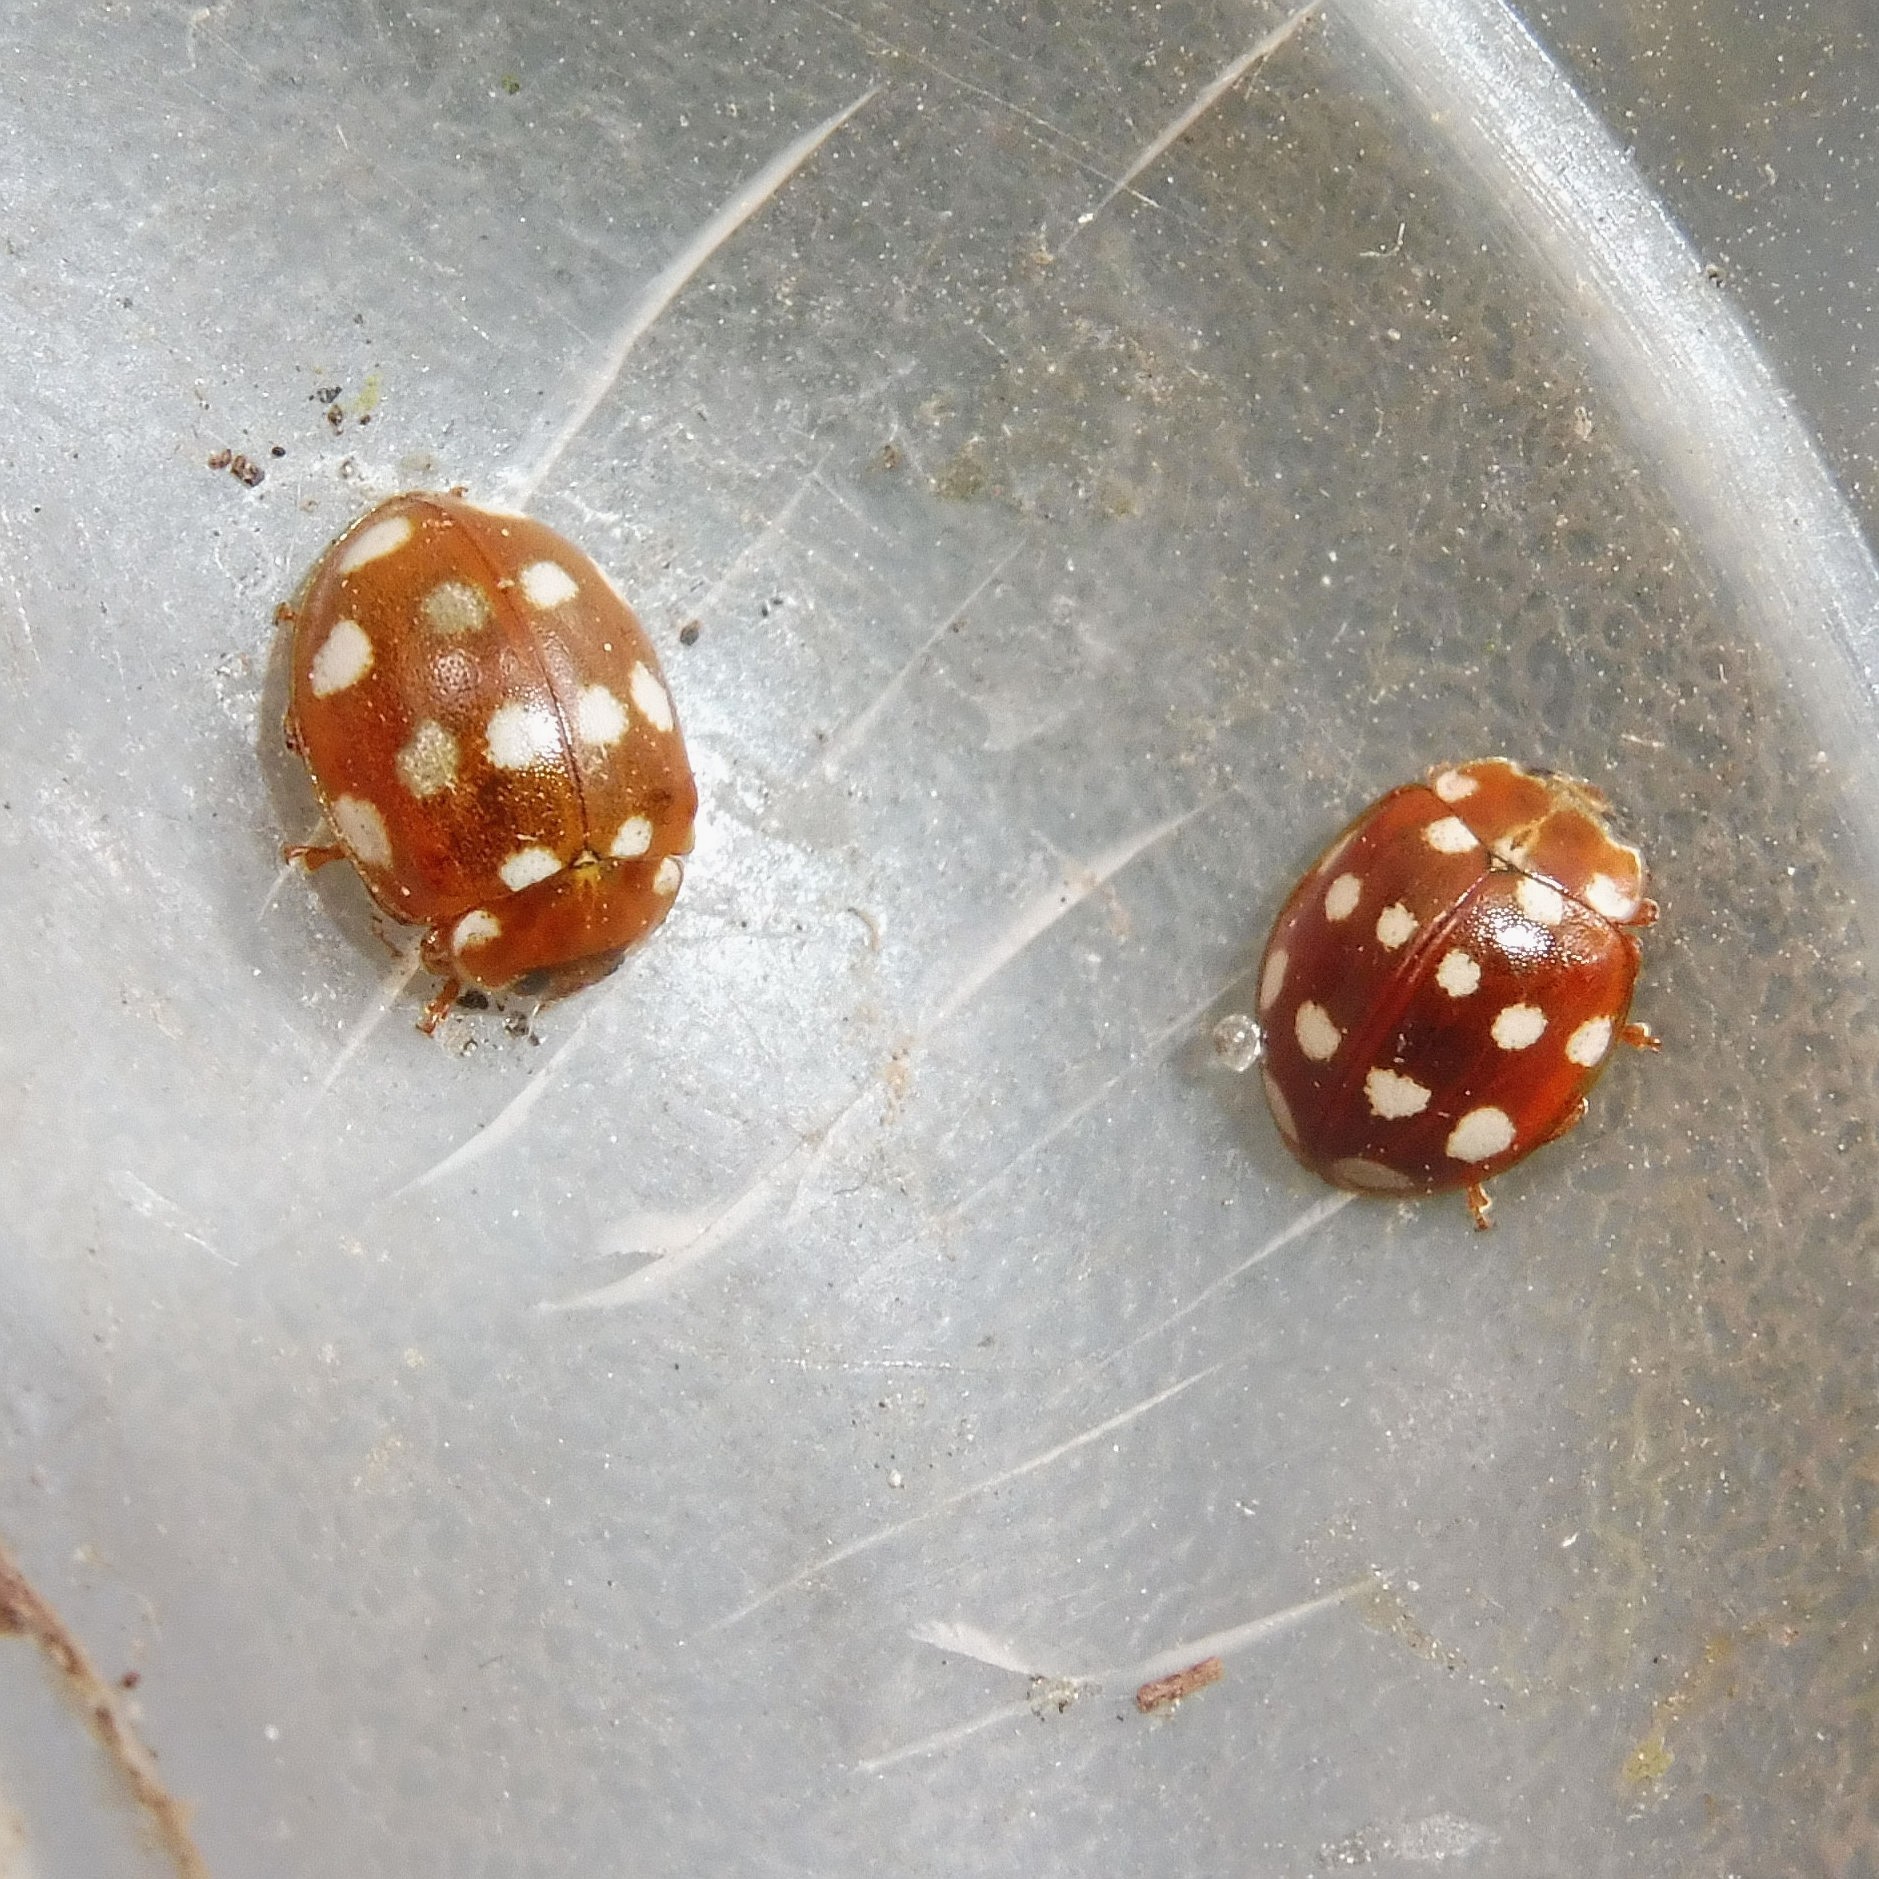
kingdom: Animalia
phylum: Arthropoda
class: Insecta
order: Coleoptera
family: Coccinellidae
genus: Calvia
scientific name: Calvia quatuordecimguttata
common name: Cream-spot ladybird
